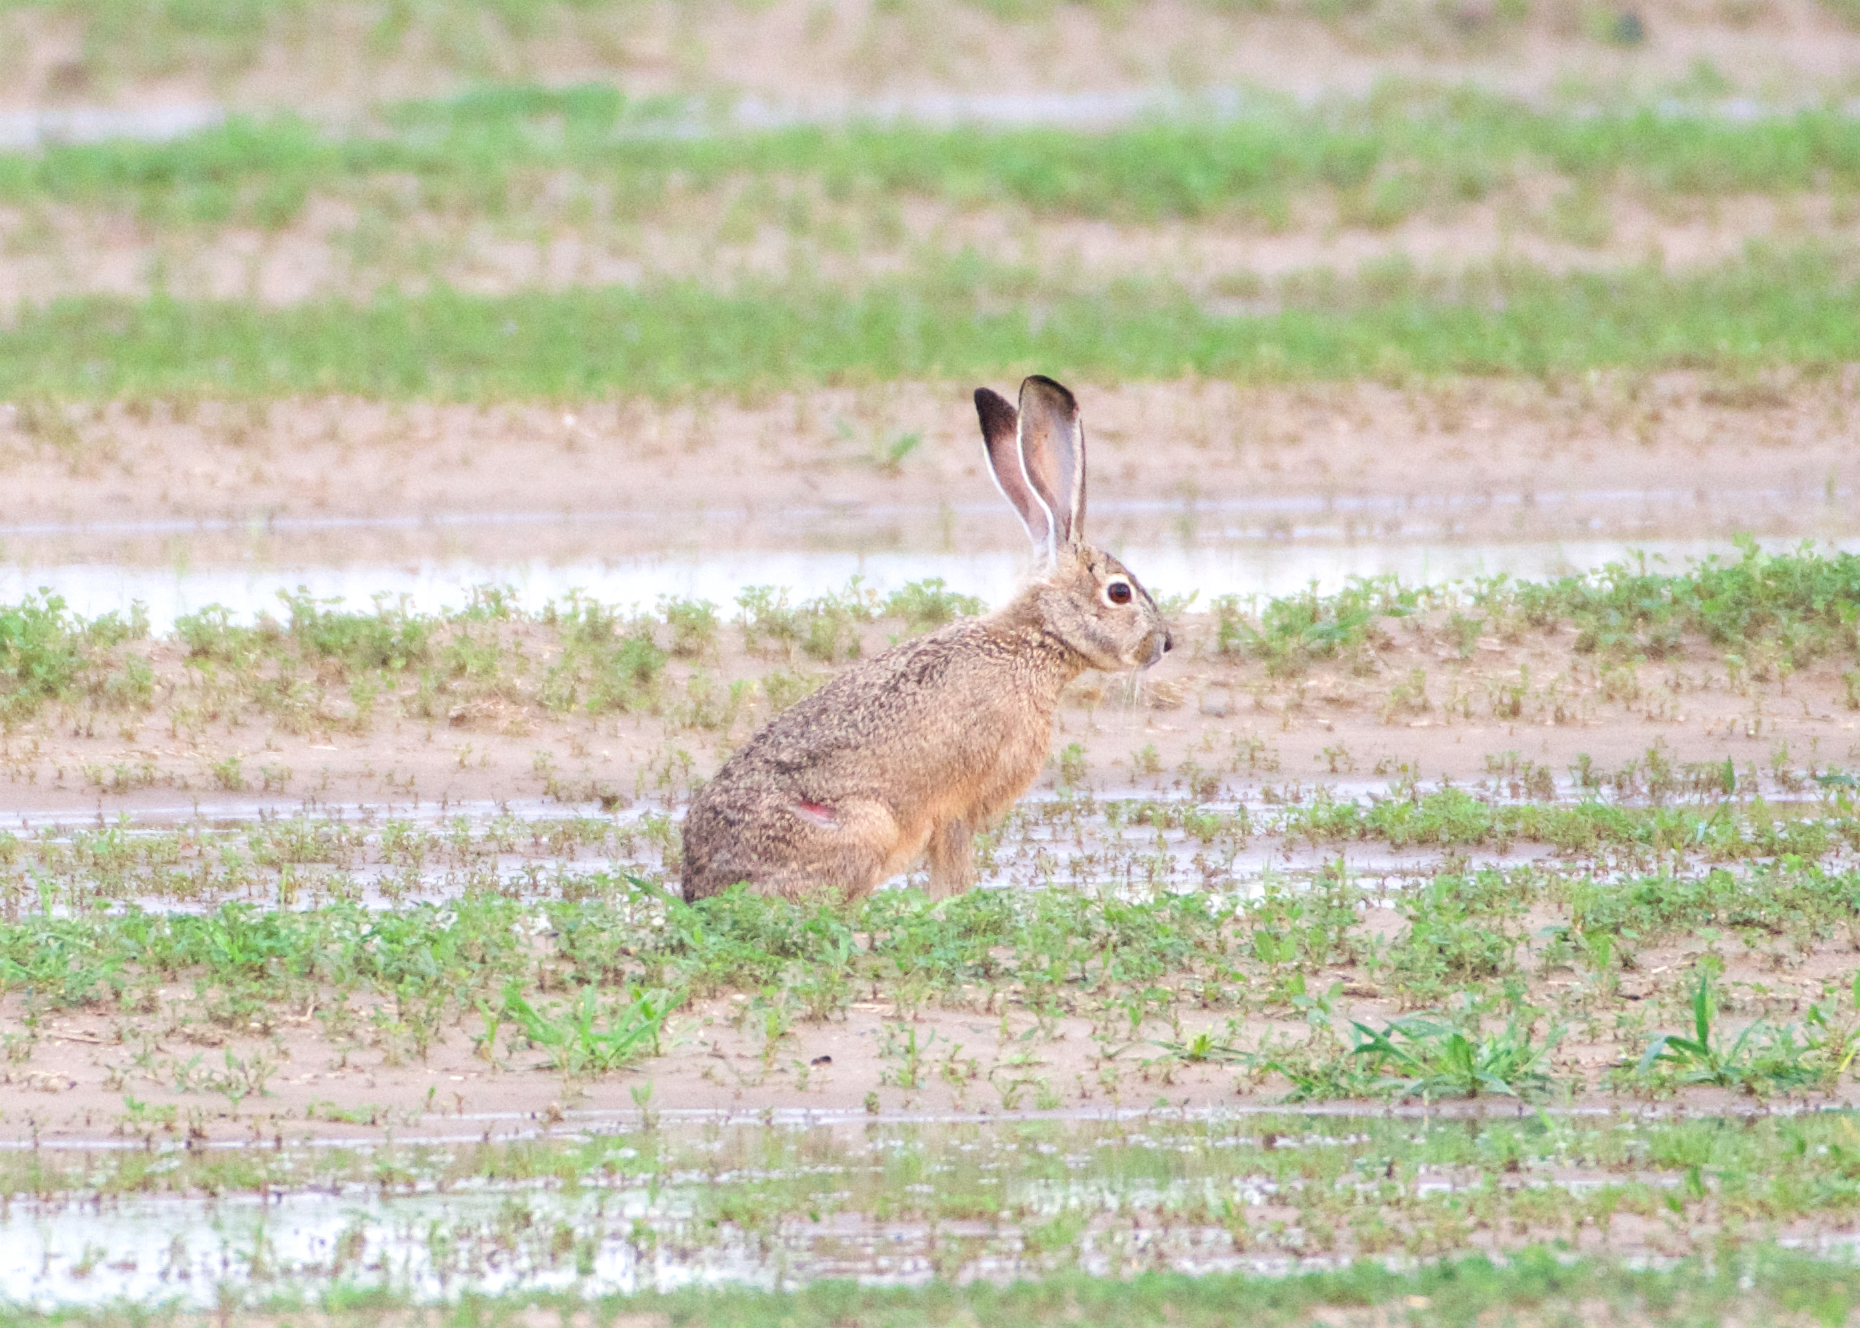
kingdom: Animalia
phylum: Chordata
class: Mammalia
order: Lagomorpha
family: Leporidae
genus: Lepus
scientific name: Lepus californicus
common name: Black-tailed jackrabbit
